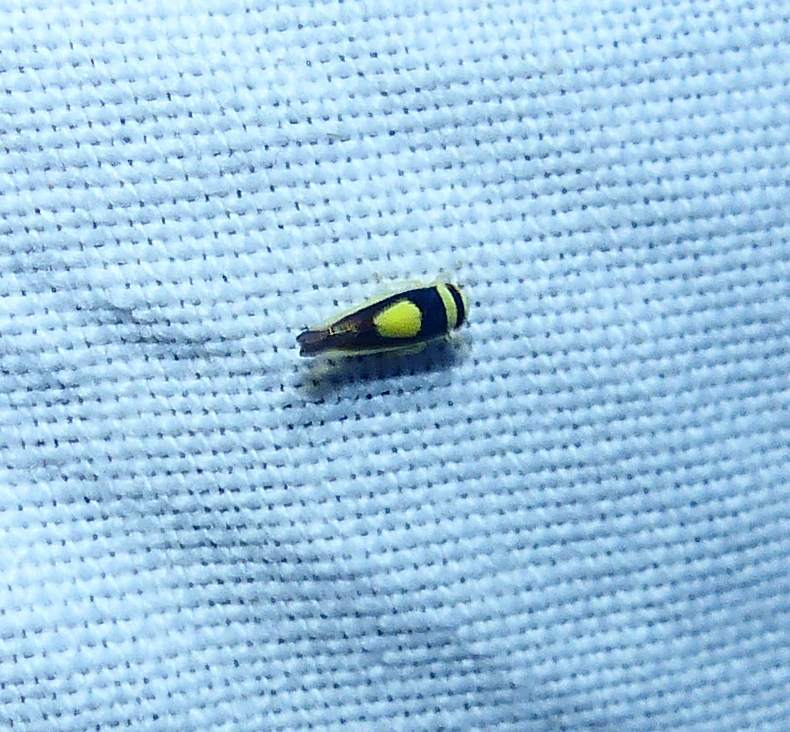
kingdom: Animalia
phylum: Arthropoda
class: Insecta
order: Hemiptera
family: Cicadellidae
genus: Colladonus
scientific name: Colladonus clitellarius
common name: The saddleback leafhopper
